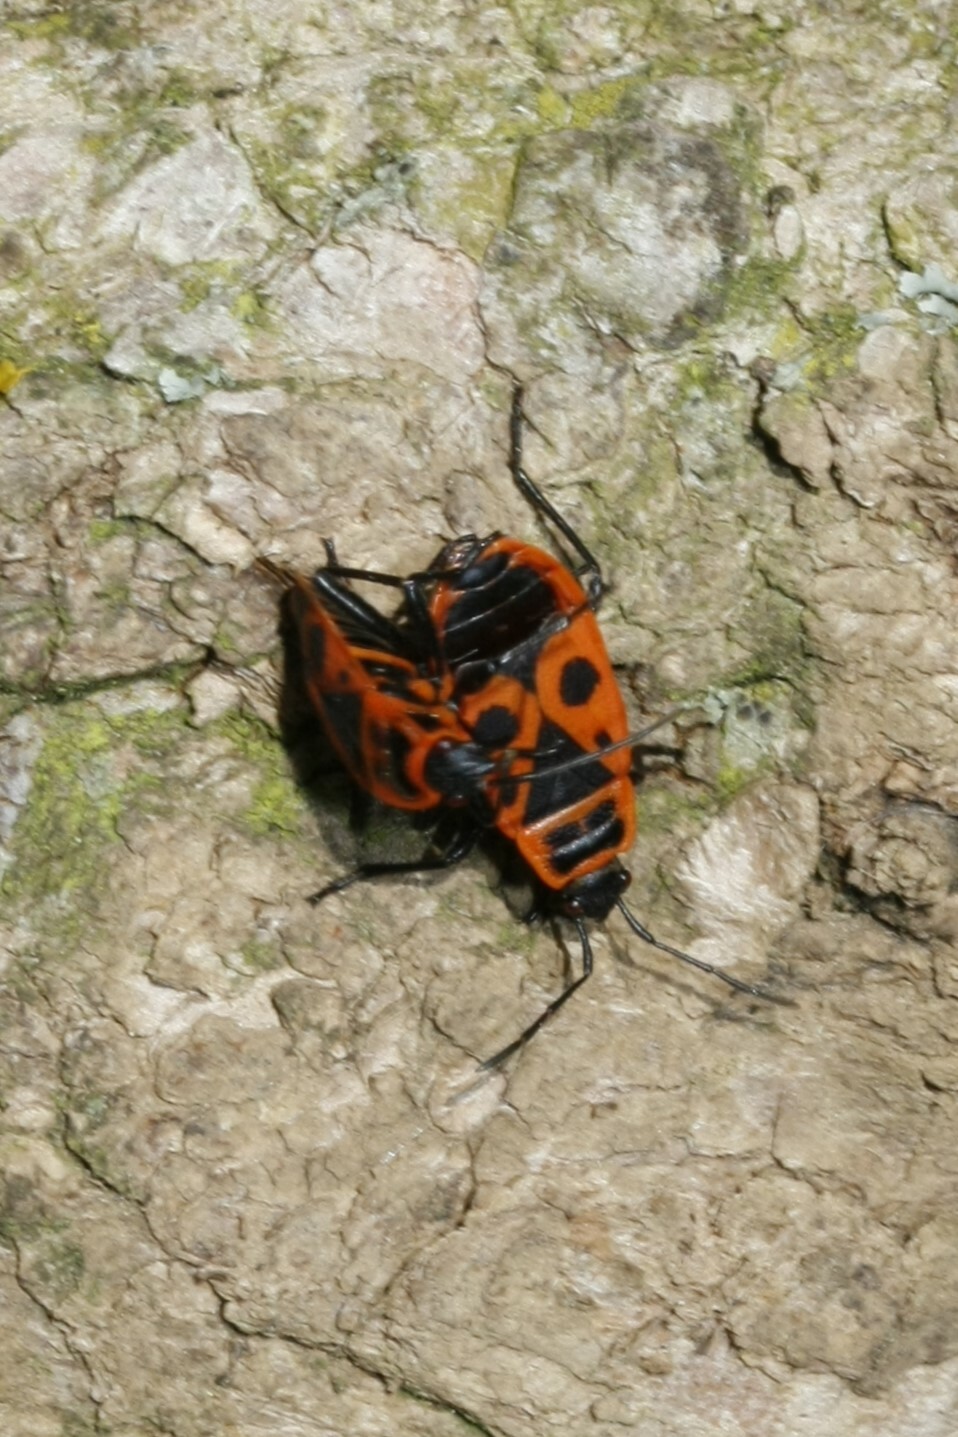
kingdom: Animalia
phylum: Arthropoda
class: Insecta
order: Hemiptera
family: Pyrrhocoridae
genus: Pyrrhocoris
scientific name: Pyrrhocoris apterus
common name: Firebug
